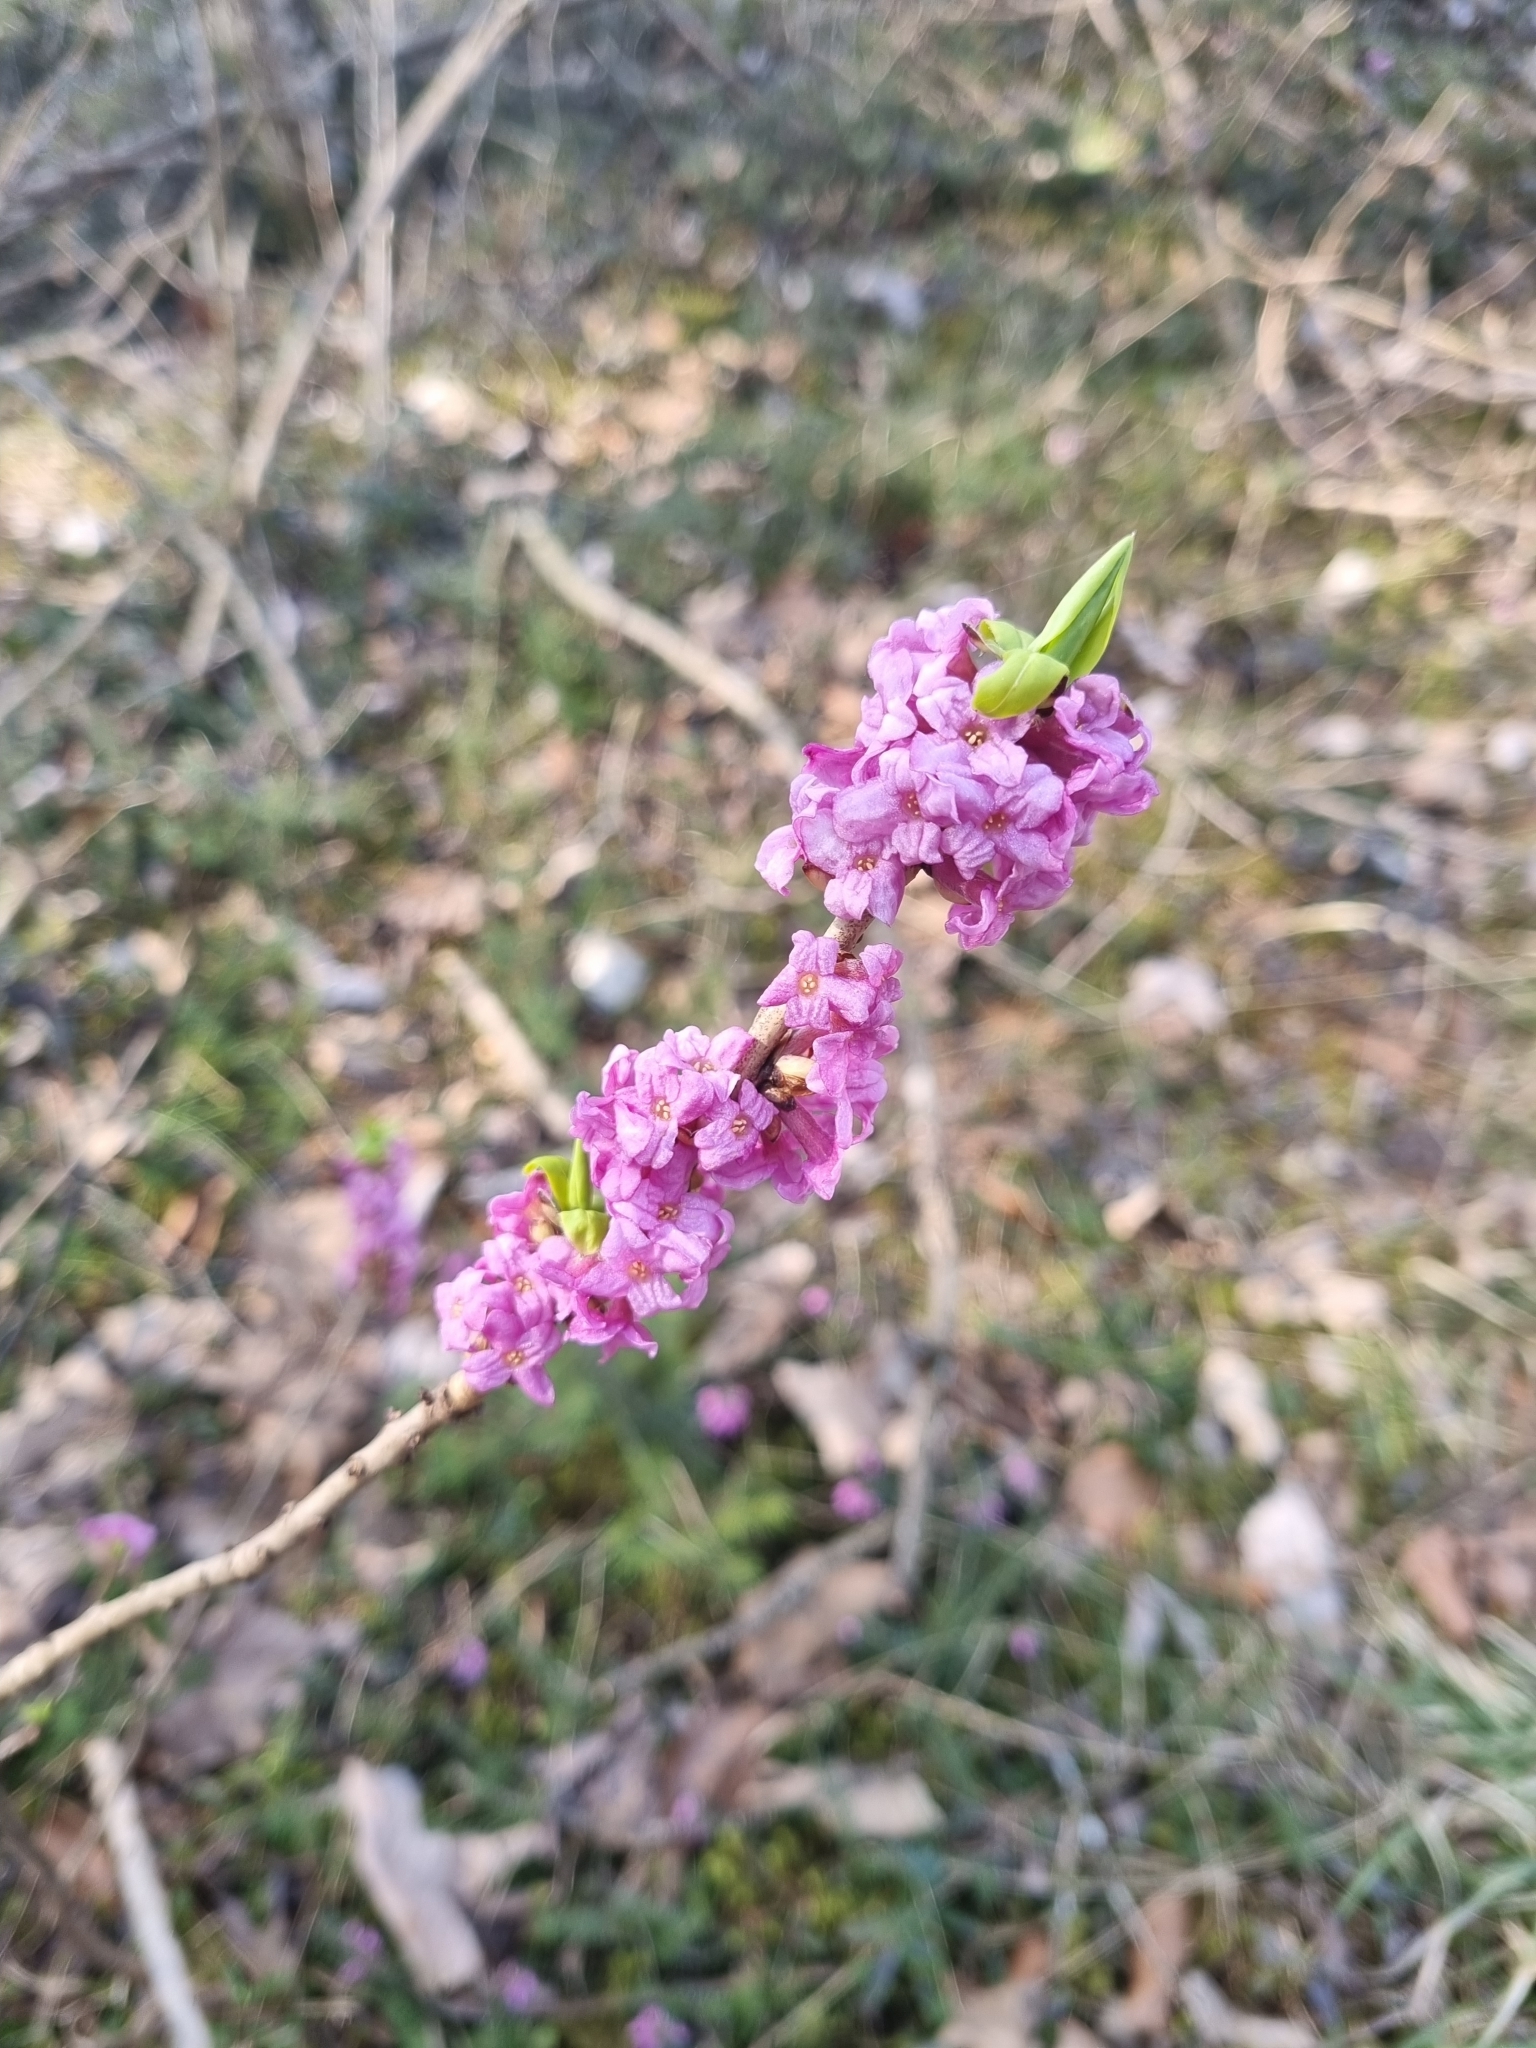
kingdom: Plantae
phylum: Tracheophyta
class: Magnoliopsida
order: Malvales
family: Thymelaeaceae
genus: Daphne
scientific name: Daphne mezereum
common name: Mezereon
